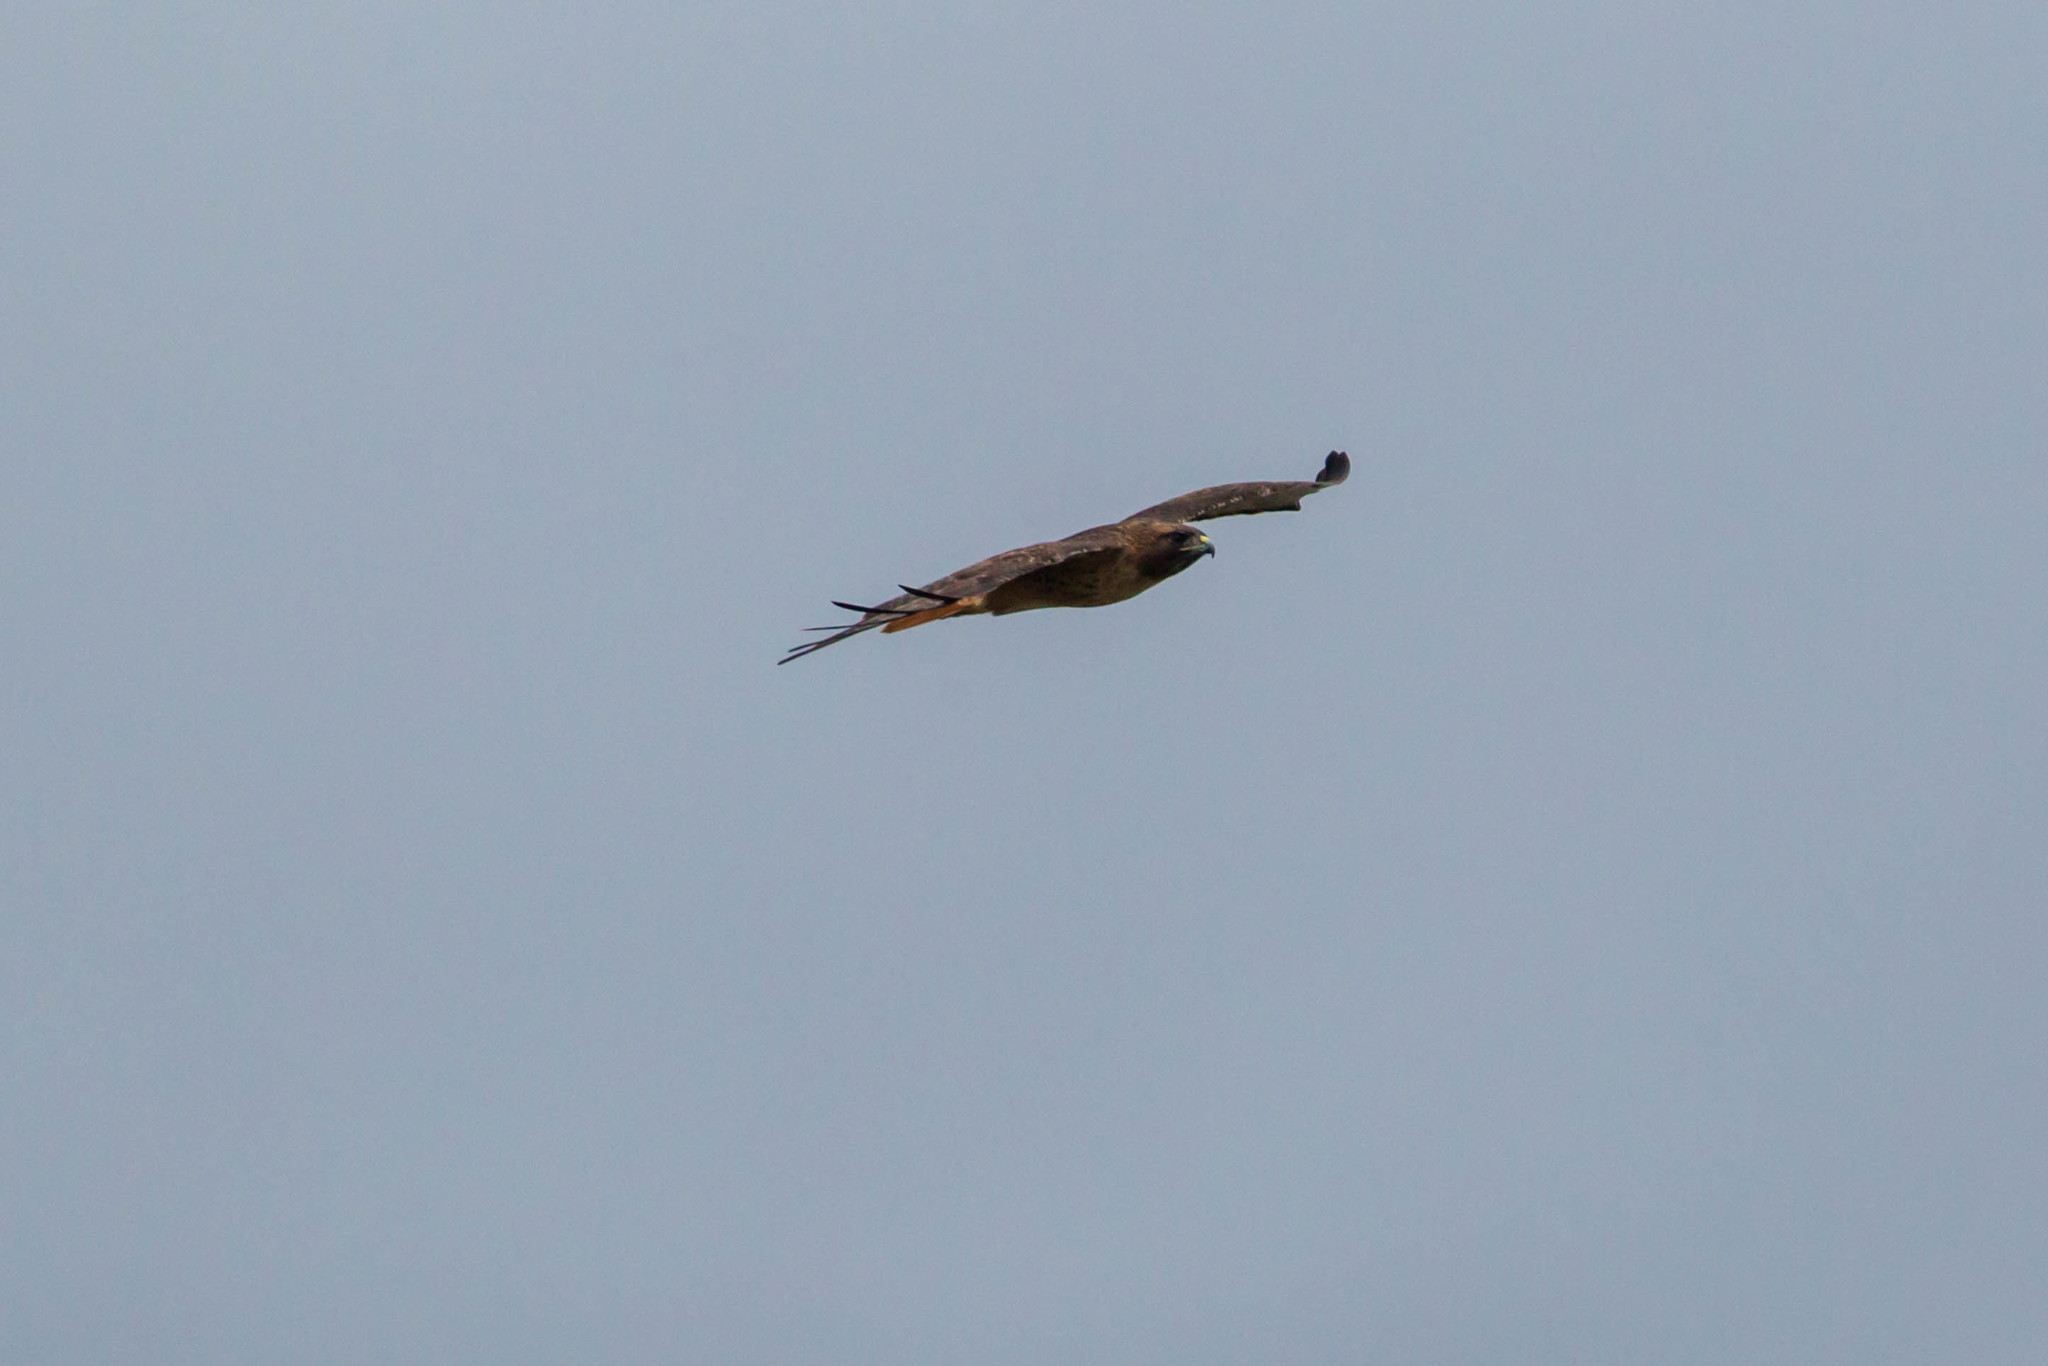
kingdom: Animalia
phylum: Chordata
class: Aves
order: Accipitriformes
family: Accipitridae
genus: Buteo
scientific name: Buteo jamaicensis
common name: Red-tailed hawk
